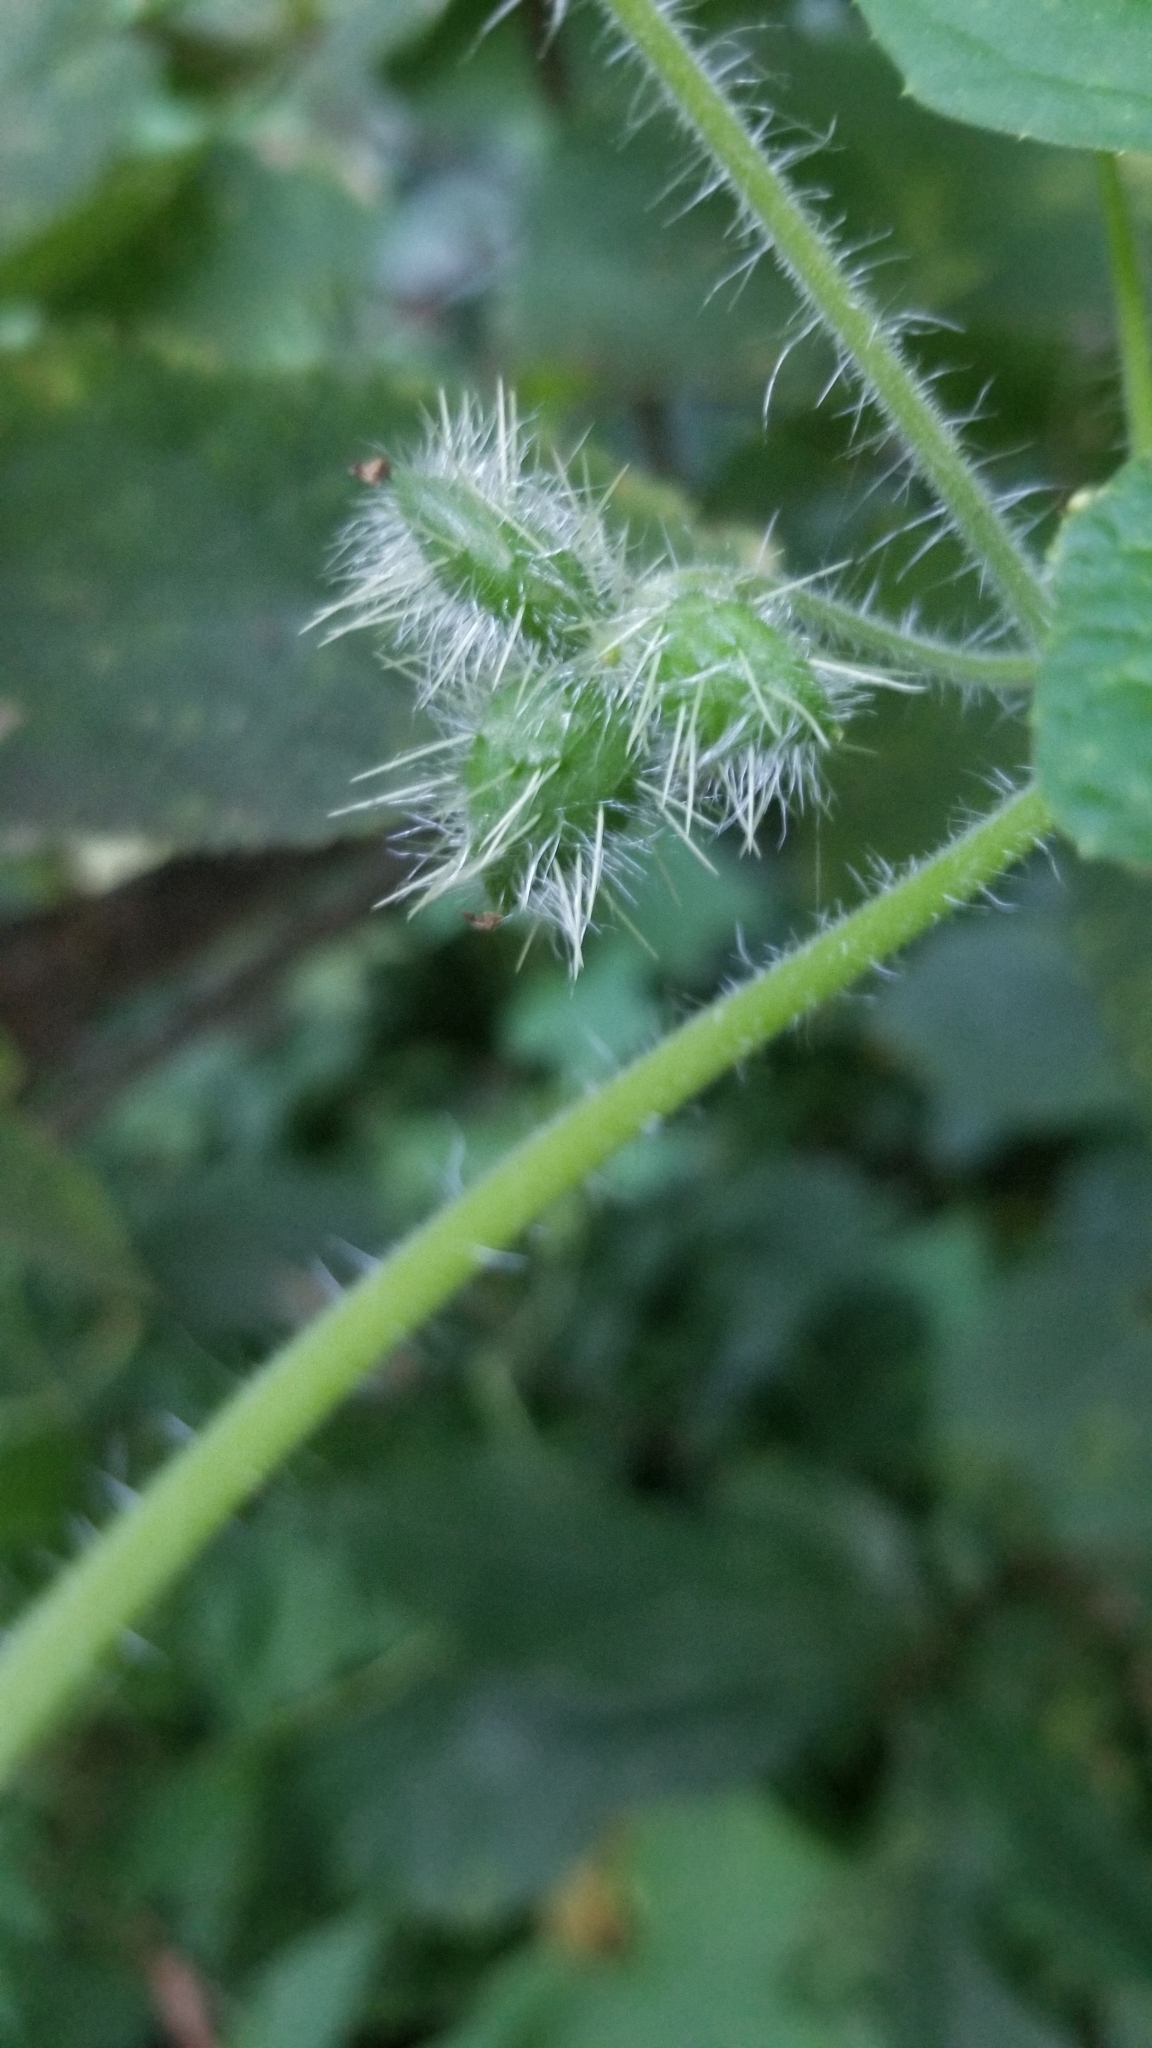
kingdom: Plantae
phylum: Tracheophyta
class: Magnoliopsida
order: Cucurbitales
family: Cucurbitaceae
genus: Sicyos
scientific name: Sicyos angulatus
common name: Angled burr cucumber
